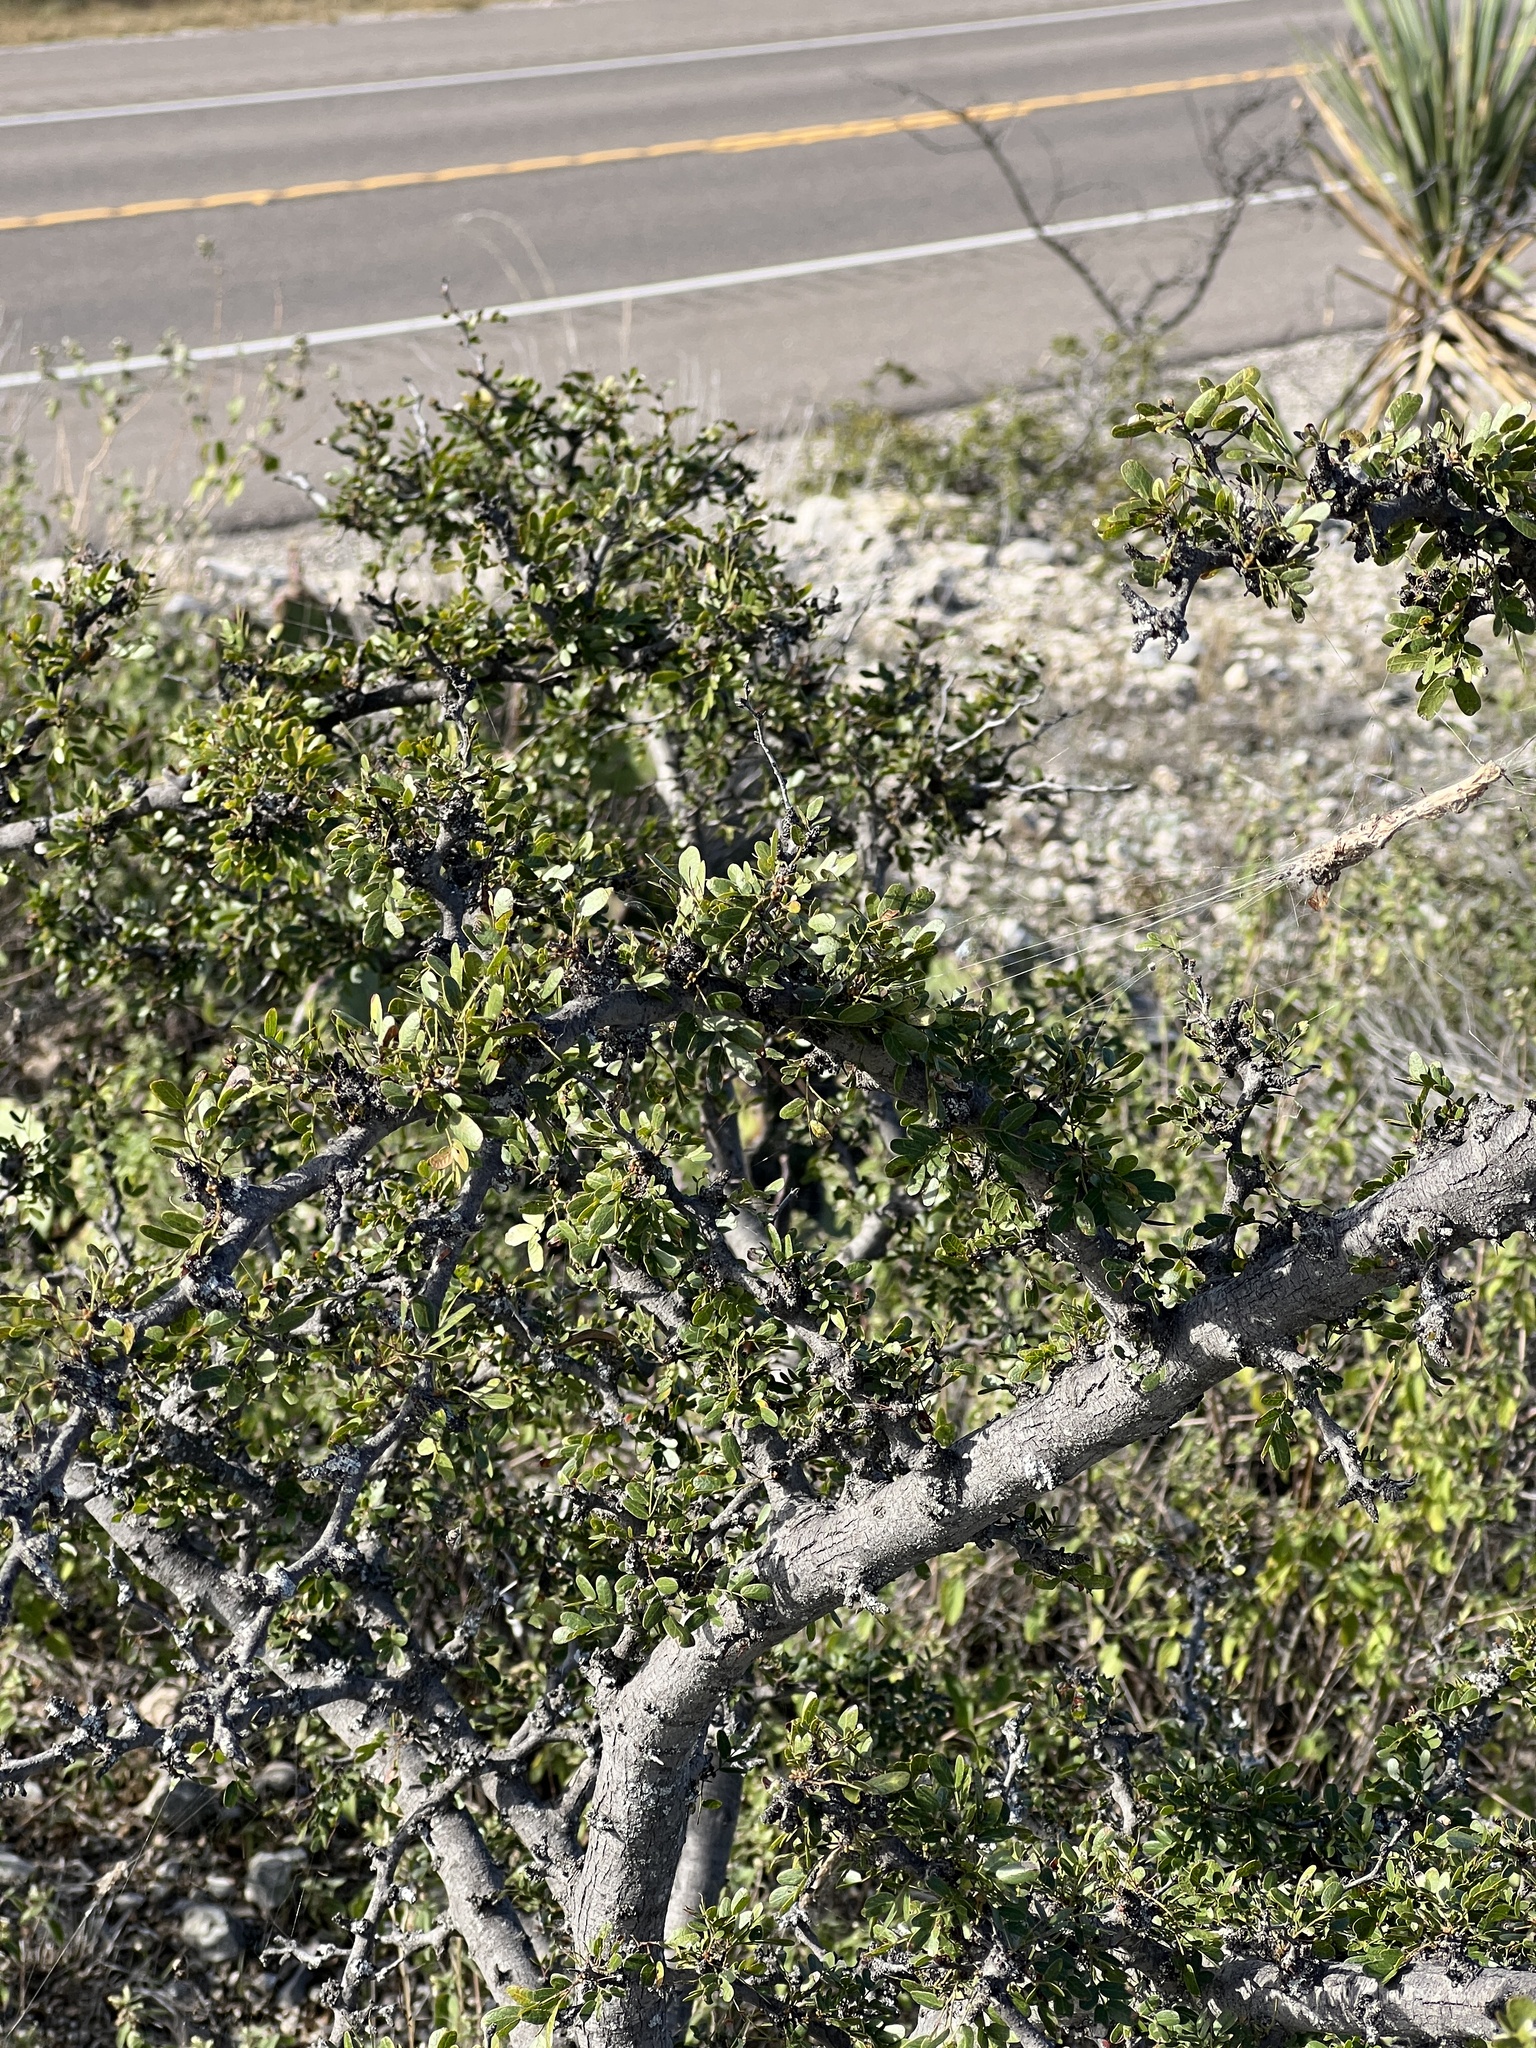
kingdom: Plantae
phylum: Tracheophyta
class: Magnoliopsida
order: Fabales
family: Fabaceae
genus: Vachellia
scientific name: Vachellia rigidula
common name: Blackbrush
